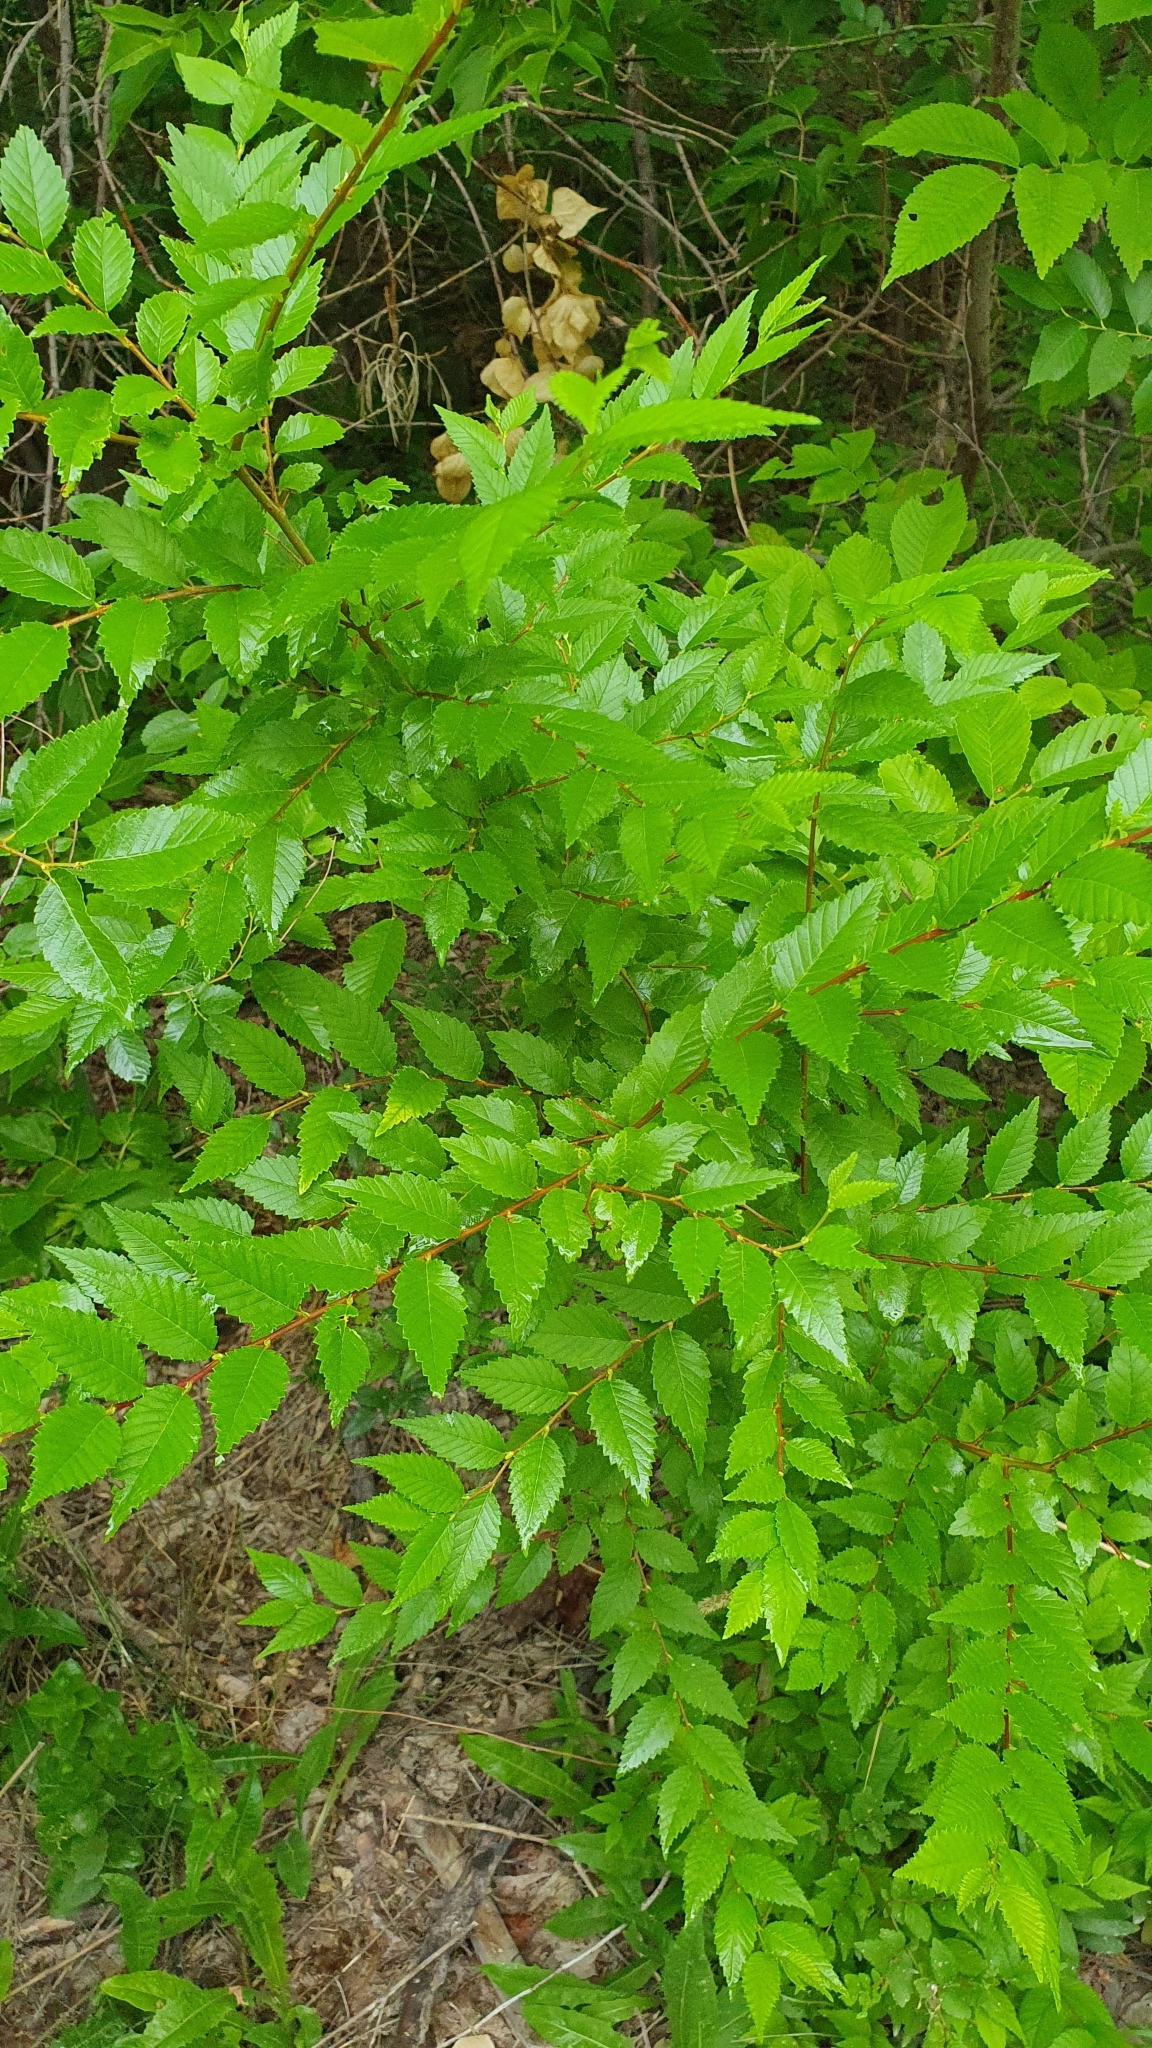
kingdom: Plantae
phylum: Tracheophyta
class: Magnoliopsida
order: Rosales
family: Ulmaceae
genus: Ulmus
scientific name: Ulmus pumila
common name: Siberian elm
